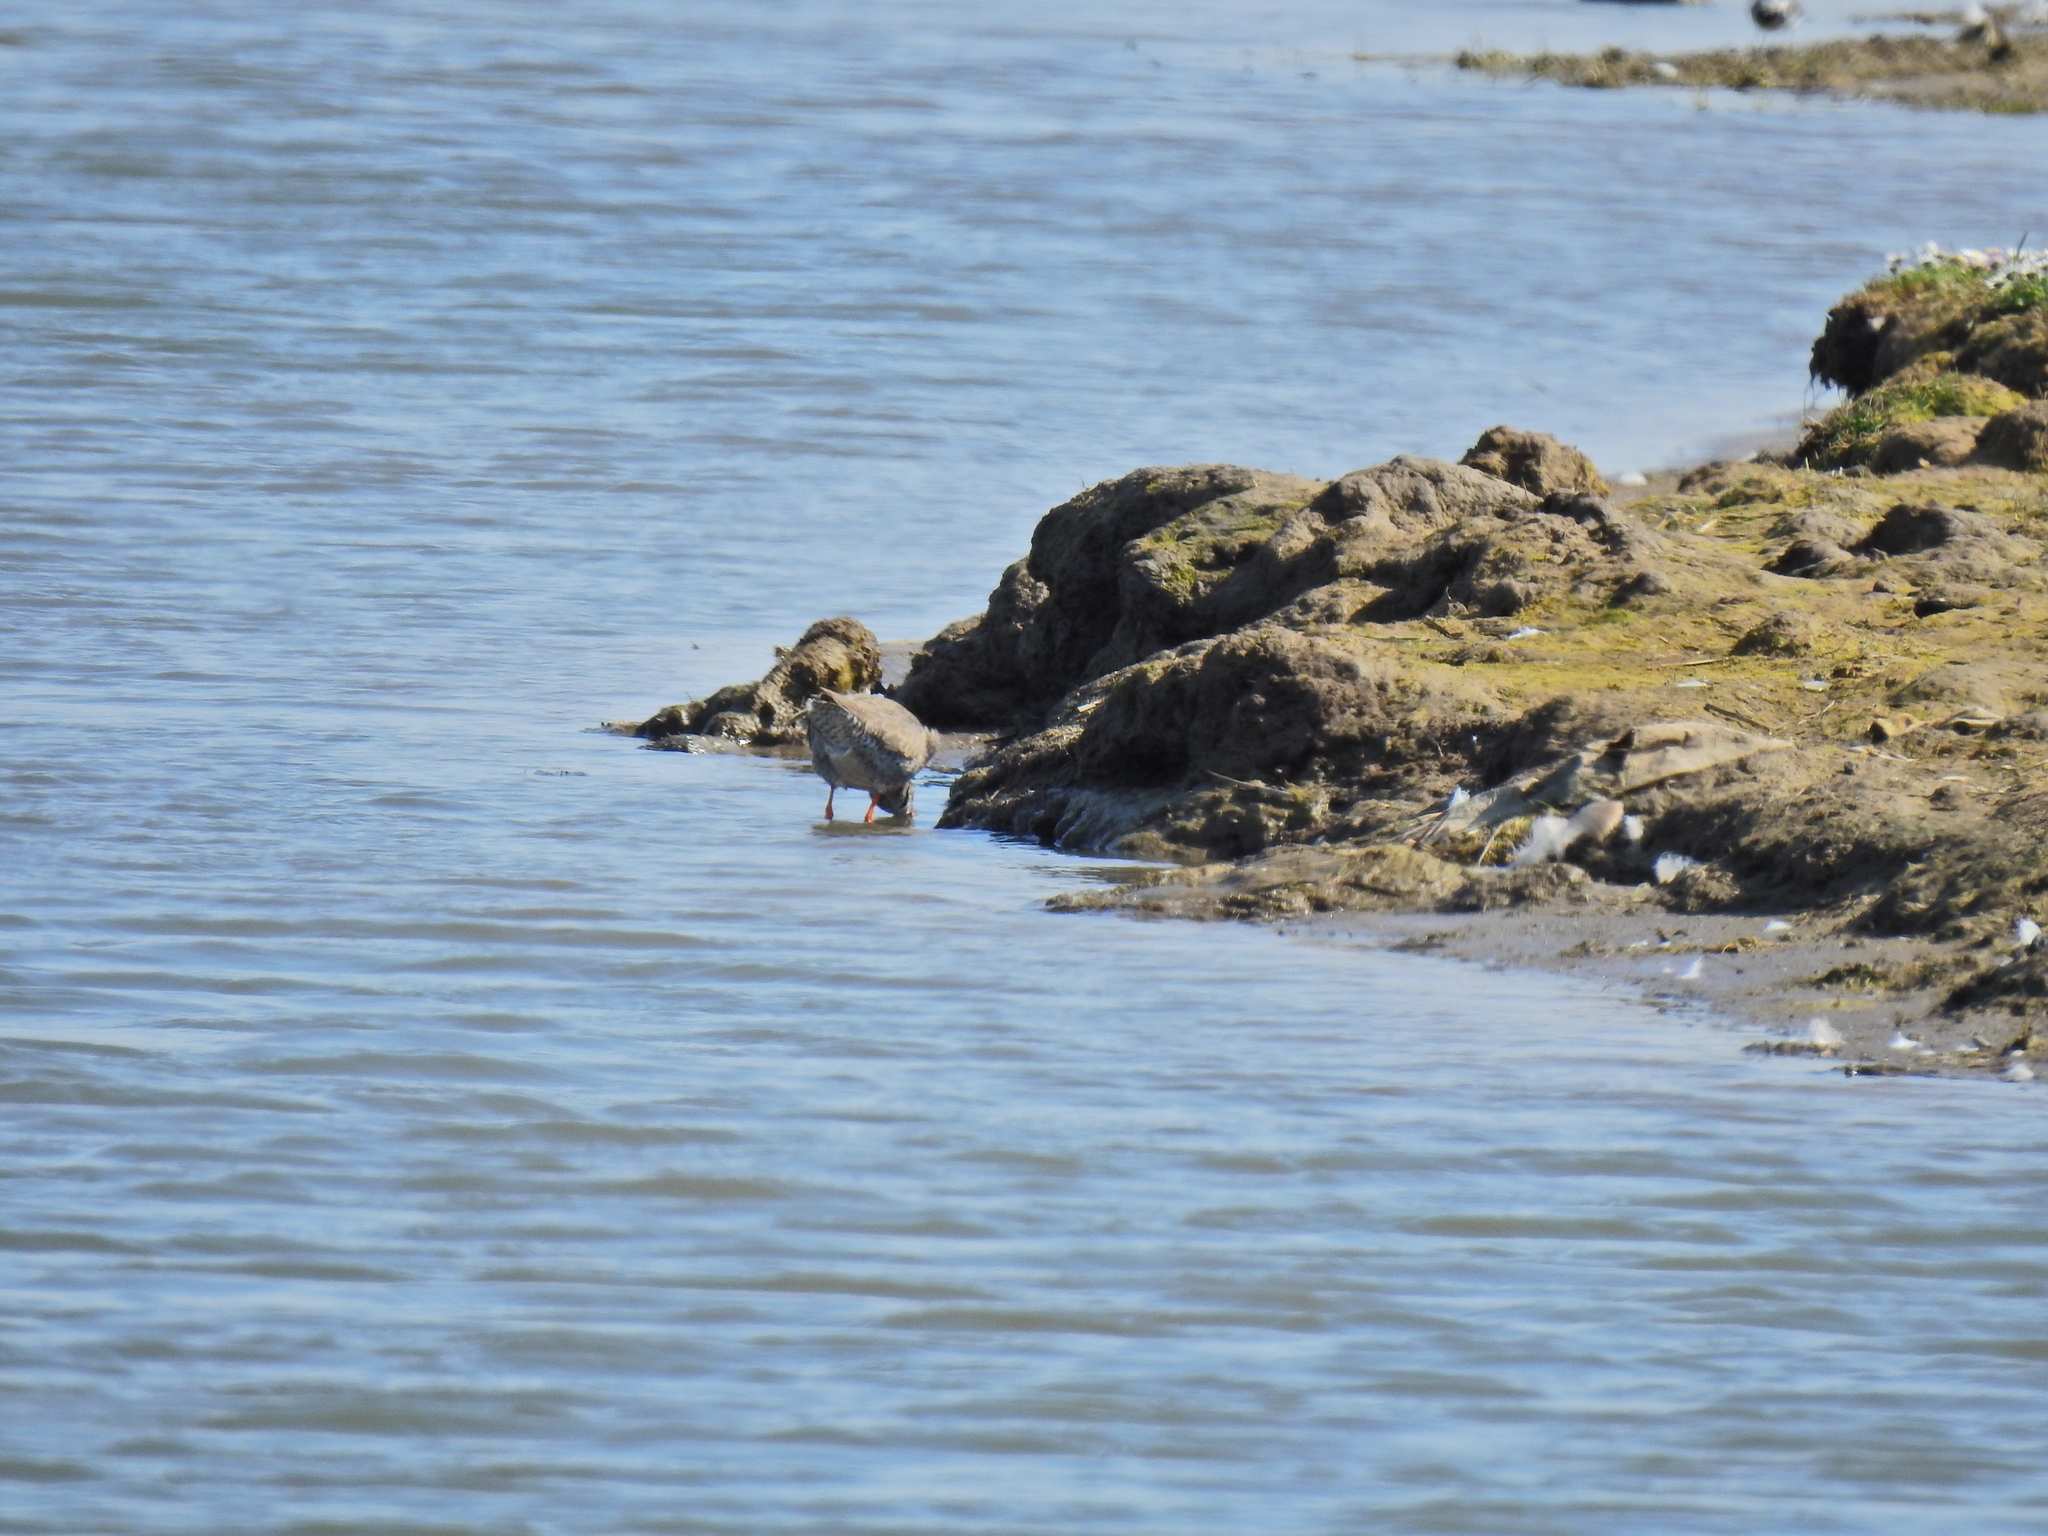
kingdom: Animalia
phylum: Chordata
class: Aves
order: Charadriiformes
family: Scolopacidae
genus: Tringa
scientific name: Tringa totanus
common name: Common redshank
